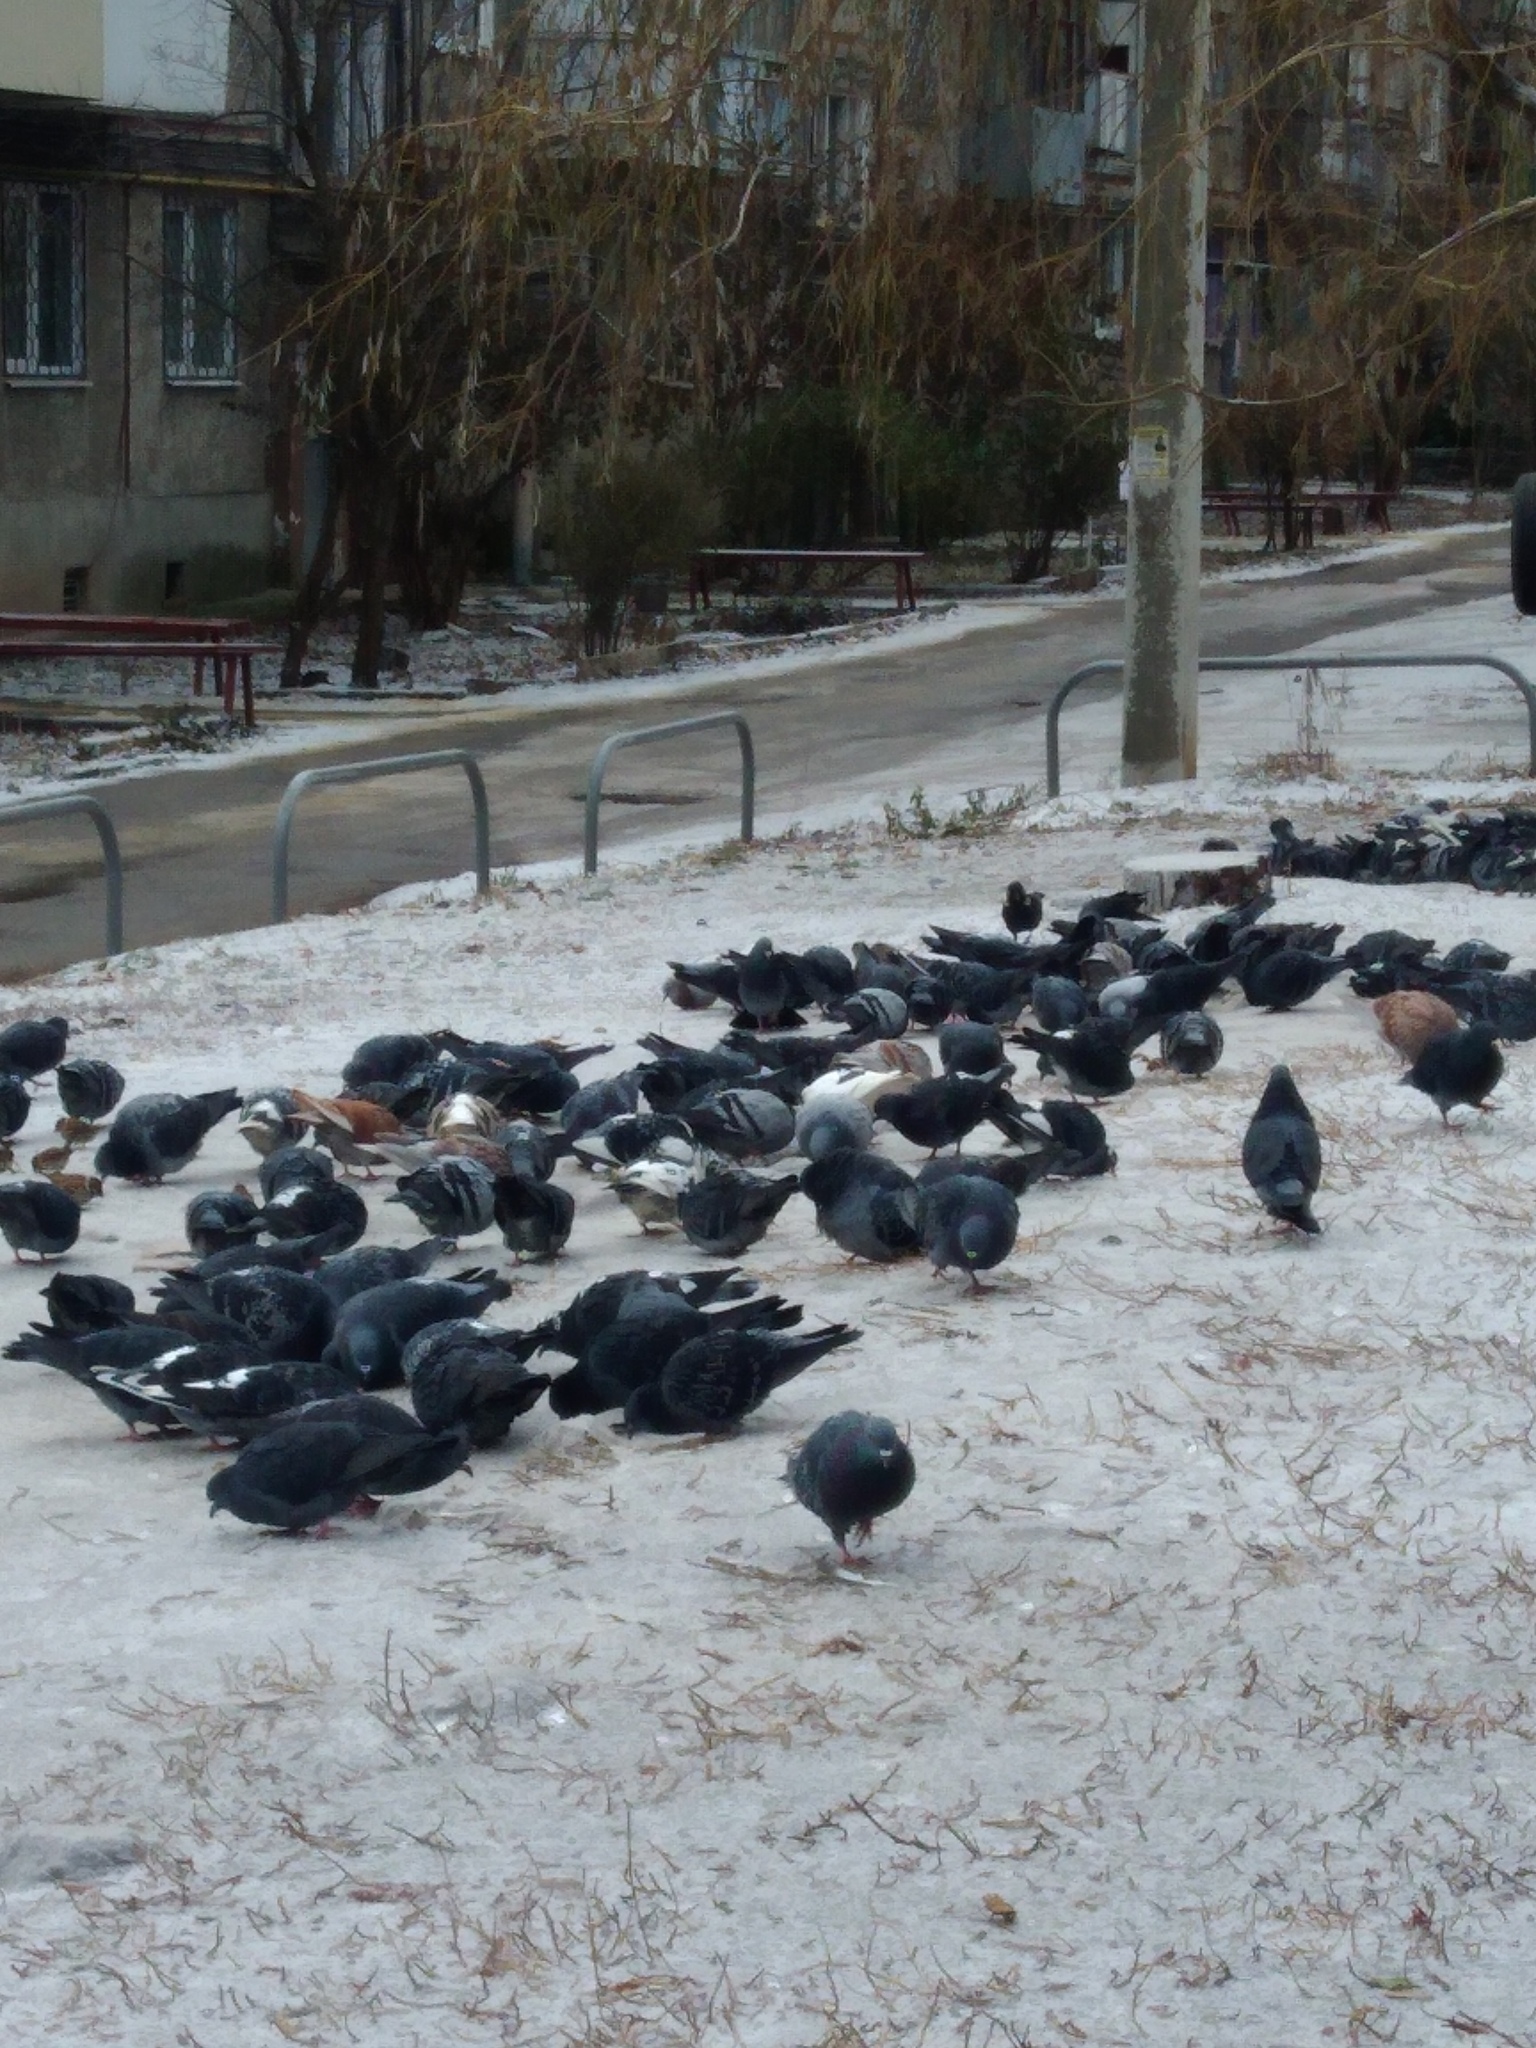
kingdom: Animalia
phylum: Chordata
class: Aves
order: Columbiformes
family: Columbidae
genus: Columba
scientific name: Columba livia
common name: Rock pigeon
